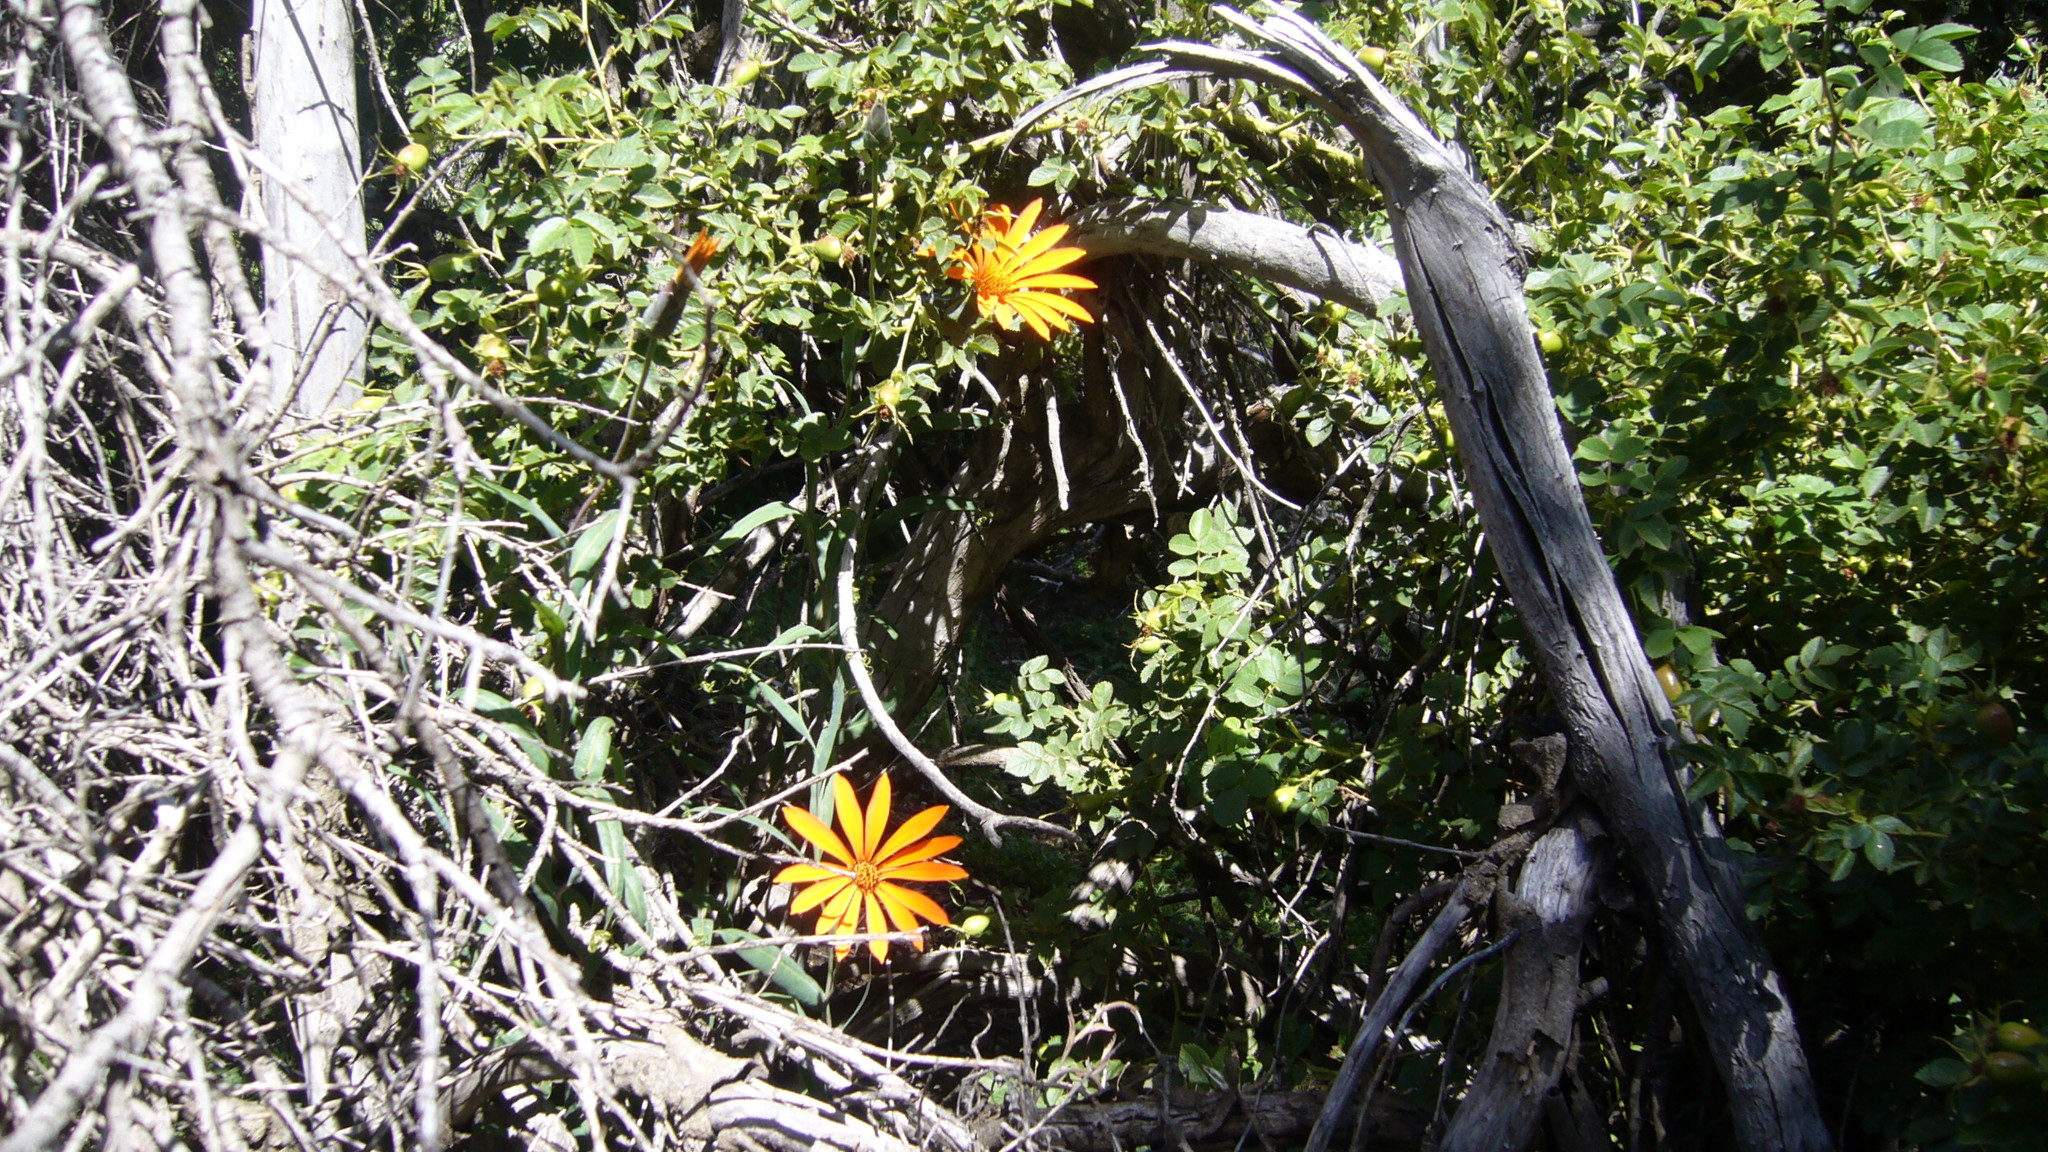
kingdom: Plantae
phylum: Tracheophyta
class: Magnoliopsida
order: Asterales
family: Asteraceae
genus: Mutisia
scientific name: Mutisia decurrens
